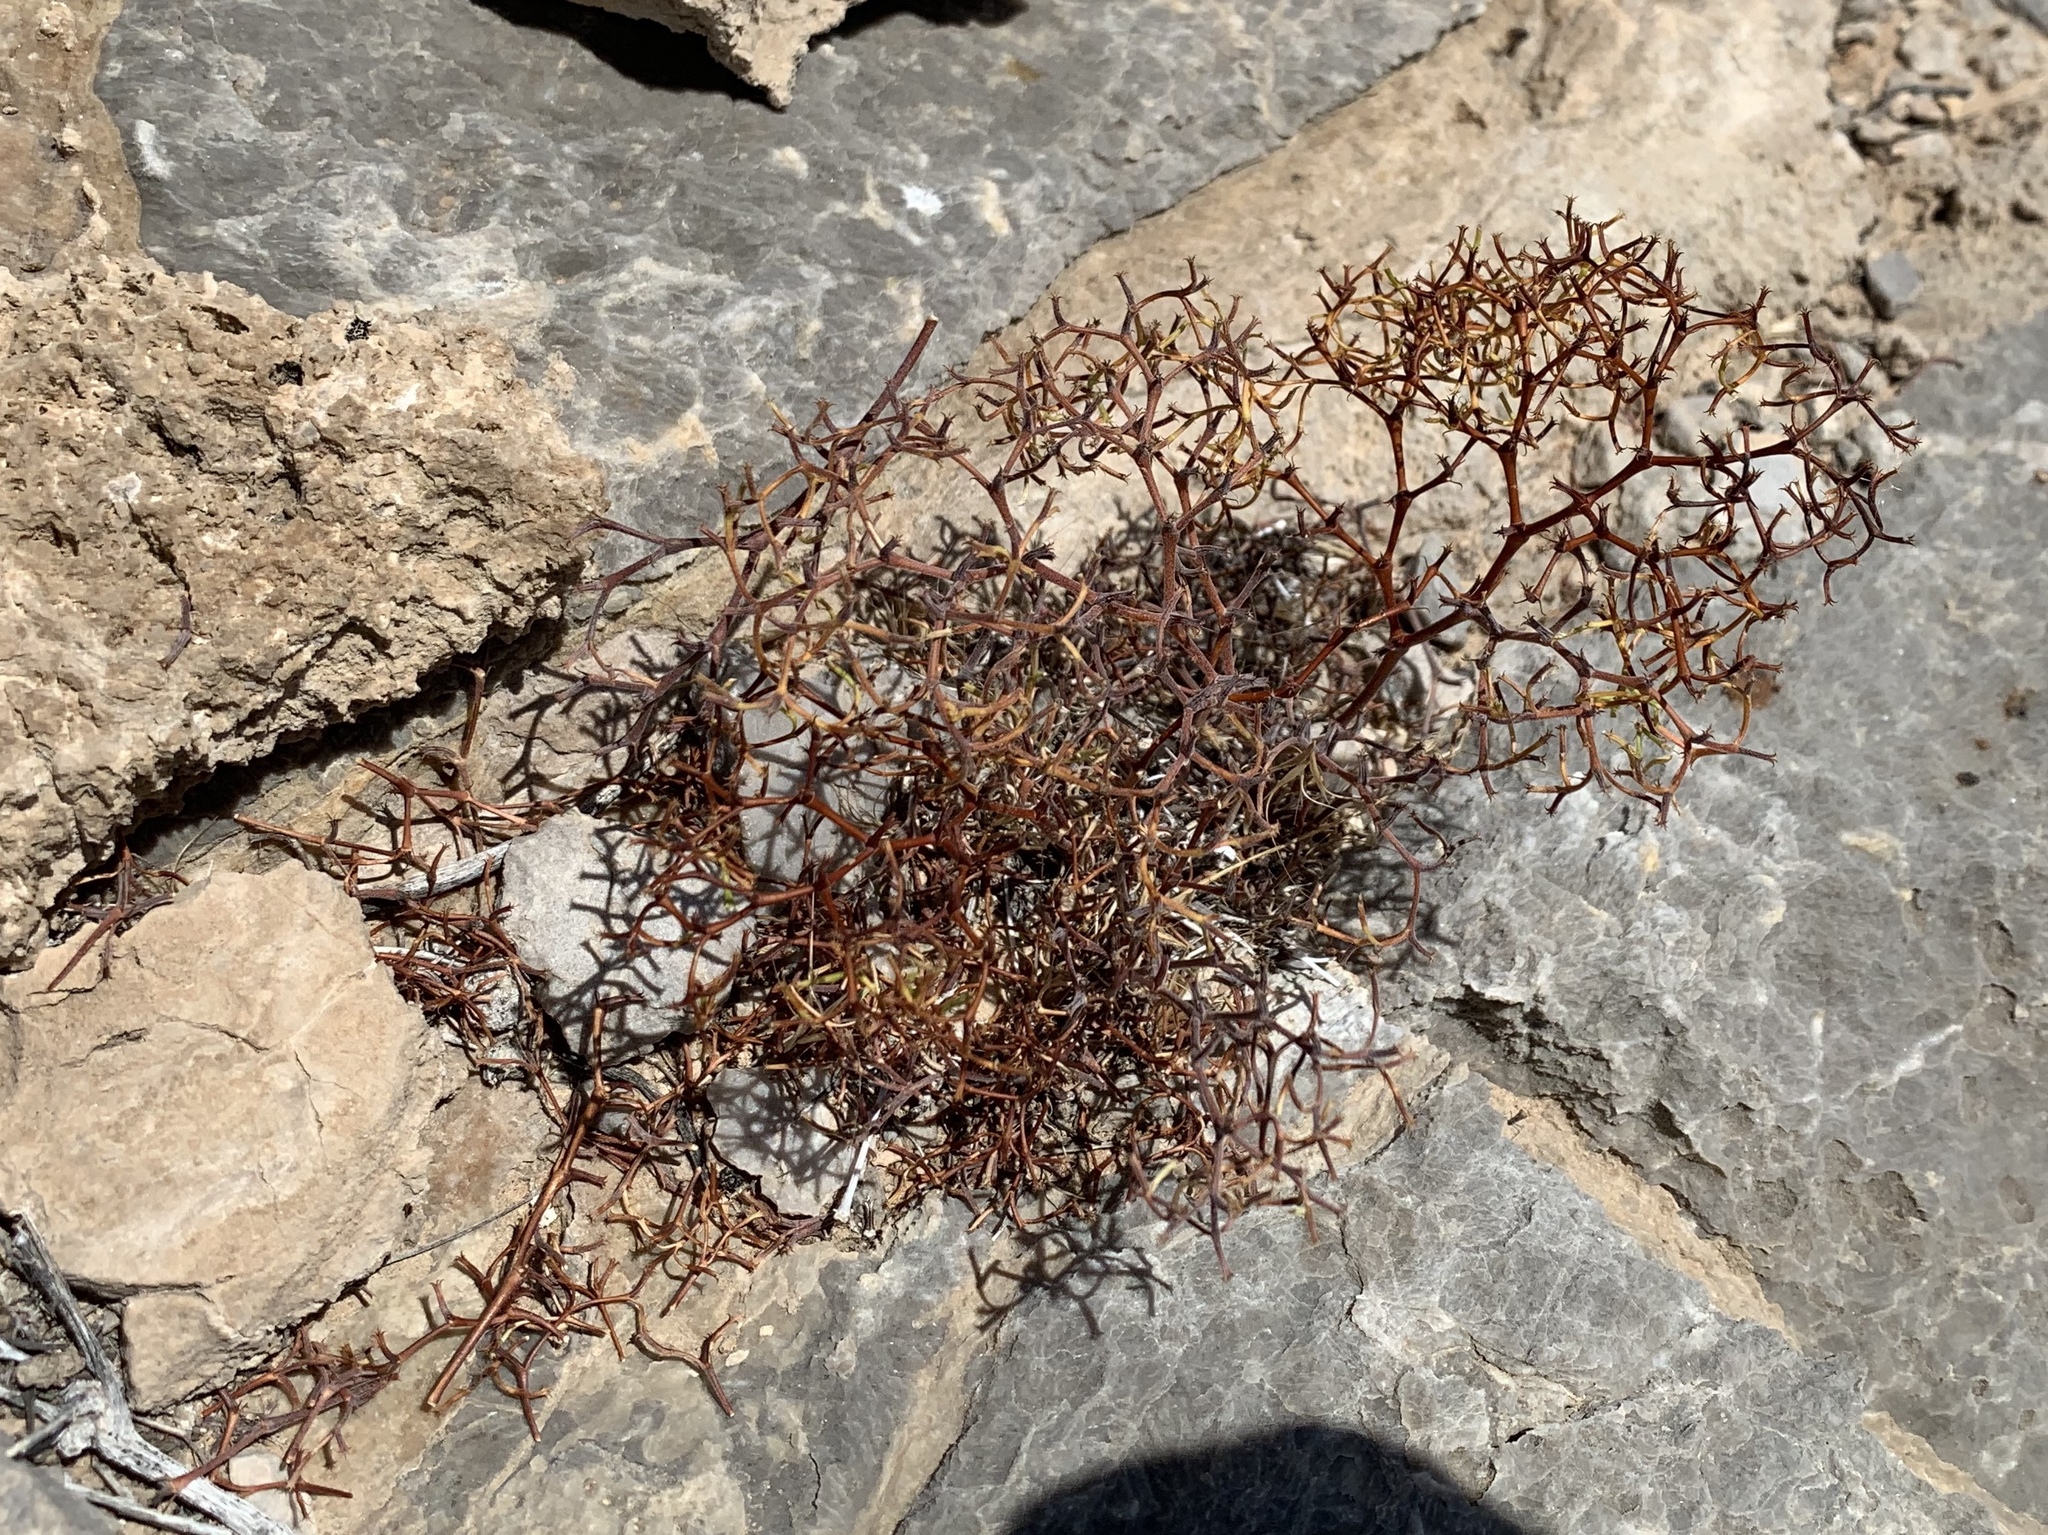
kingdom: Plantae
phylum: Tracheophyta
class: Magnoliopsida
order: Caryophyllales
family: Polygonaceae
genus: Chorizanthe
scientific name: Chorizanthe brevicornu
